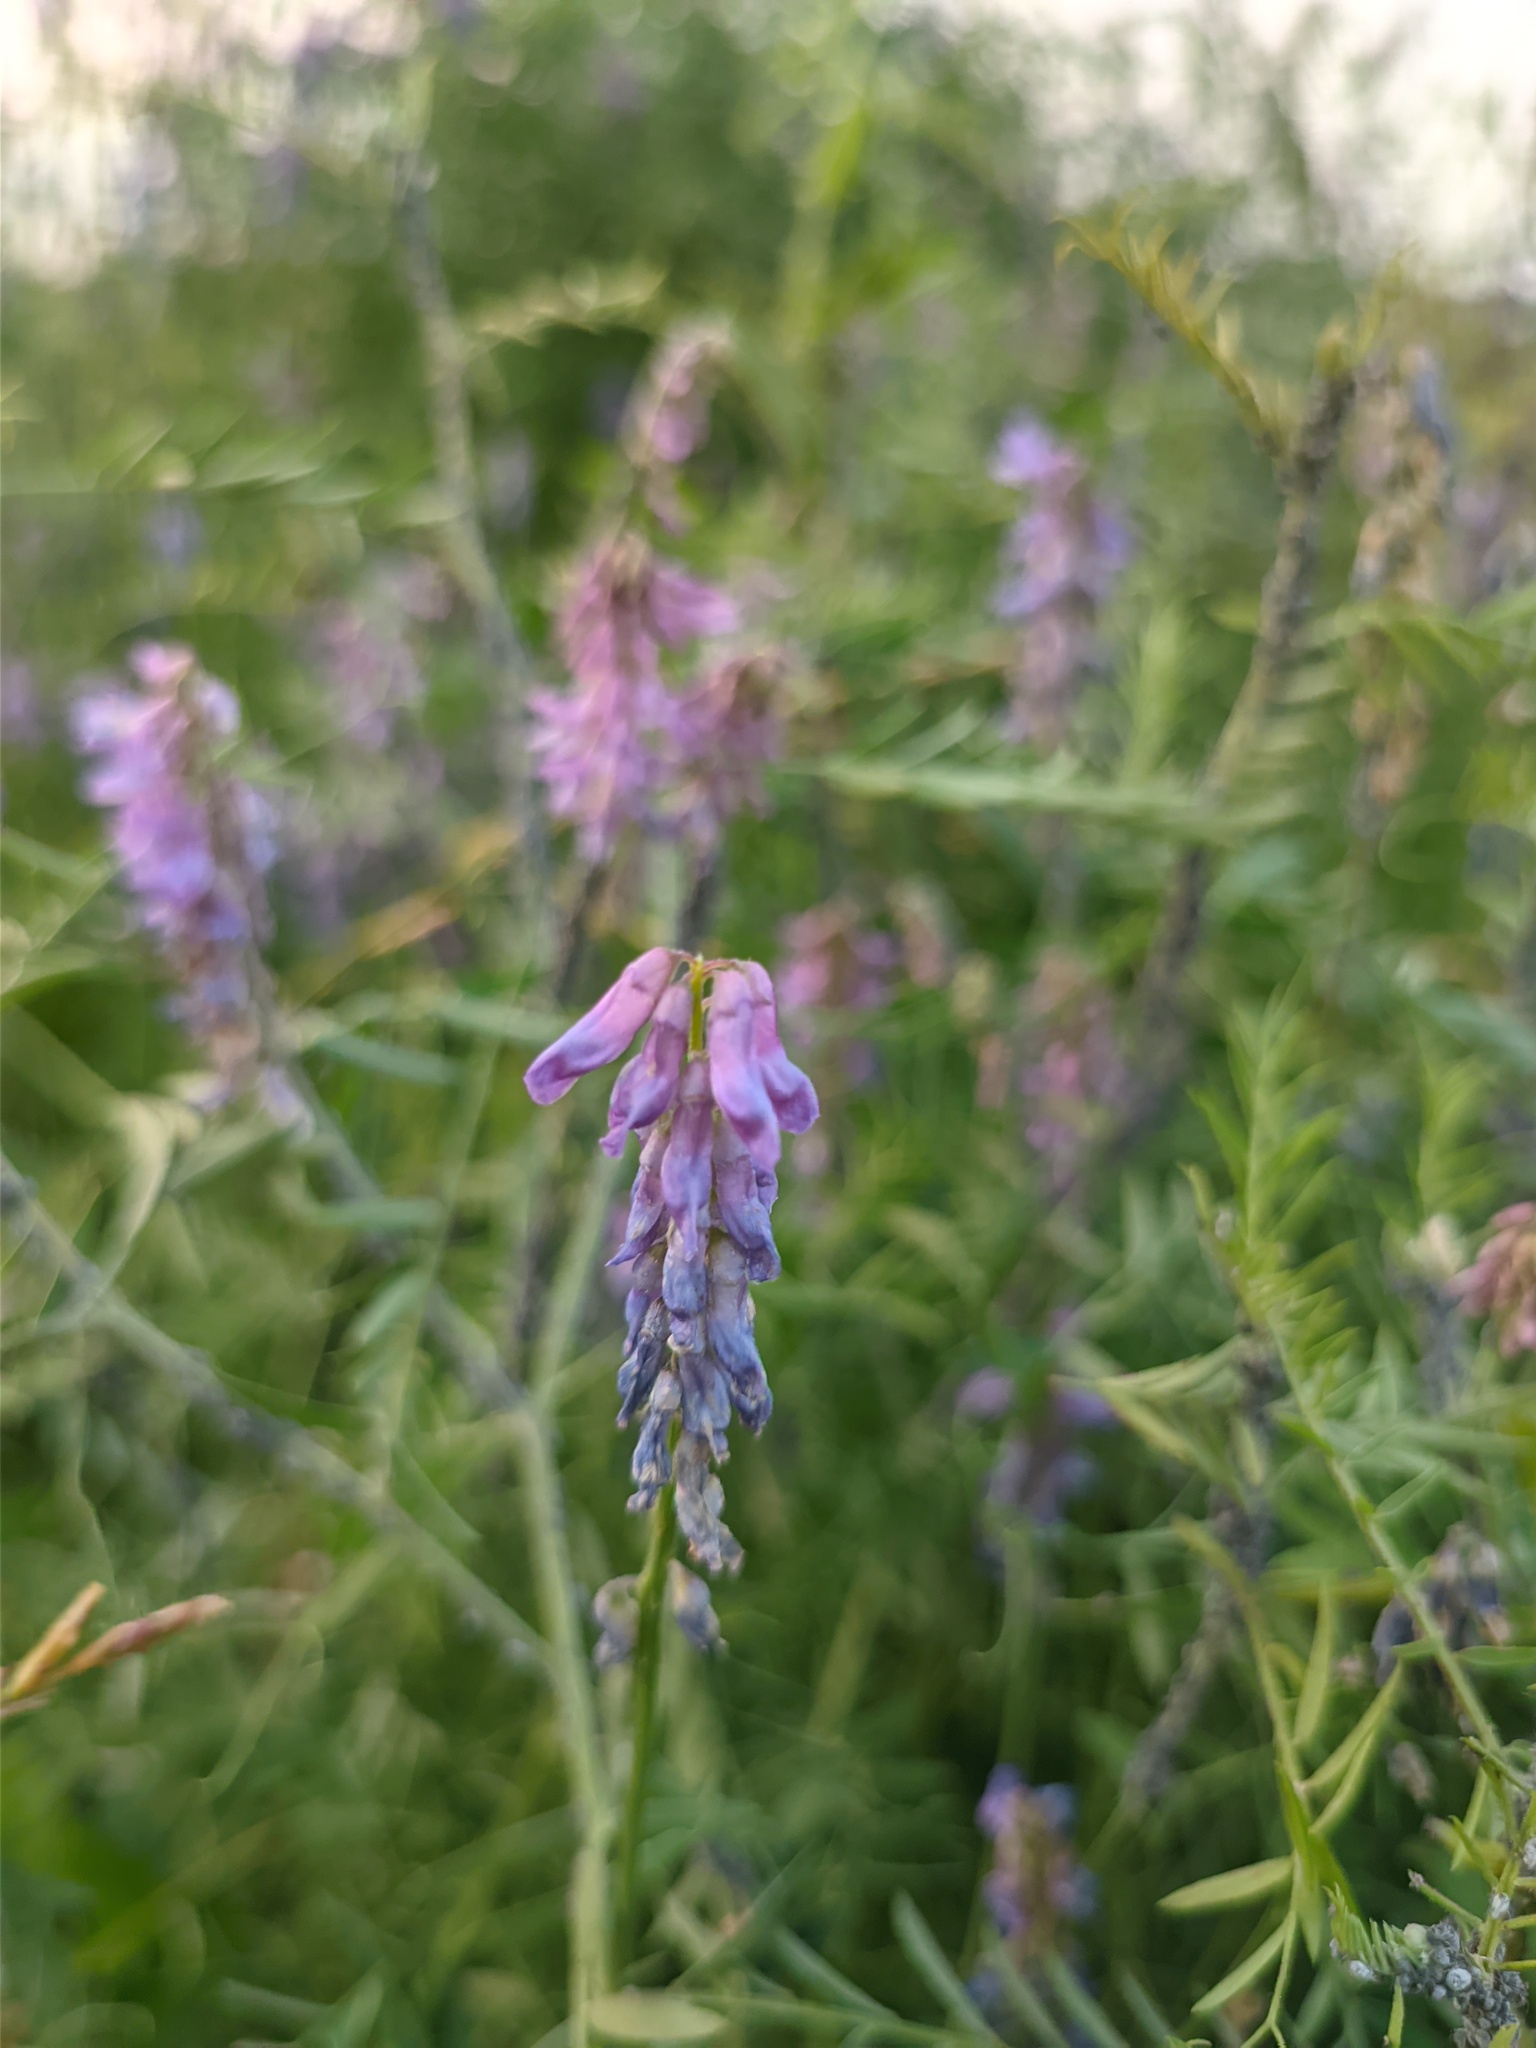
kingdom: Plantae
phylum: Tracheophyta
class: Magnoliopsida
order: Fabales
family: Fabaceae
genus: Vicia
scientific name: Vicia cracca
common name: Bird vetch
